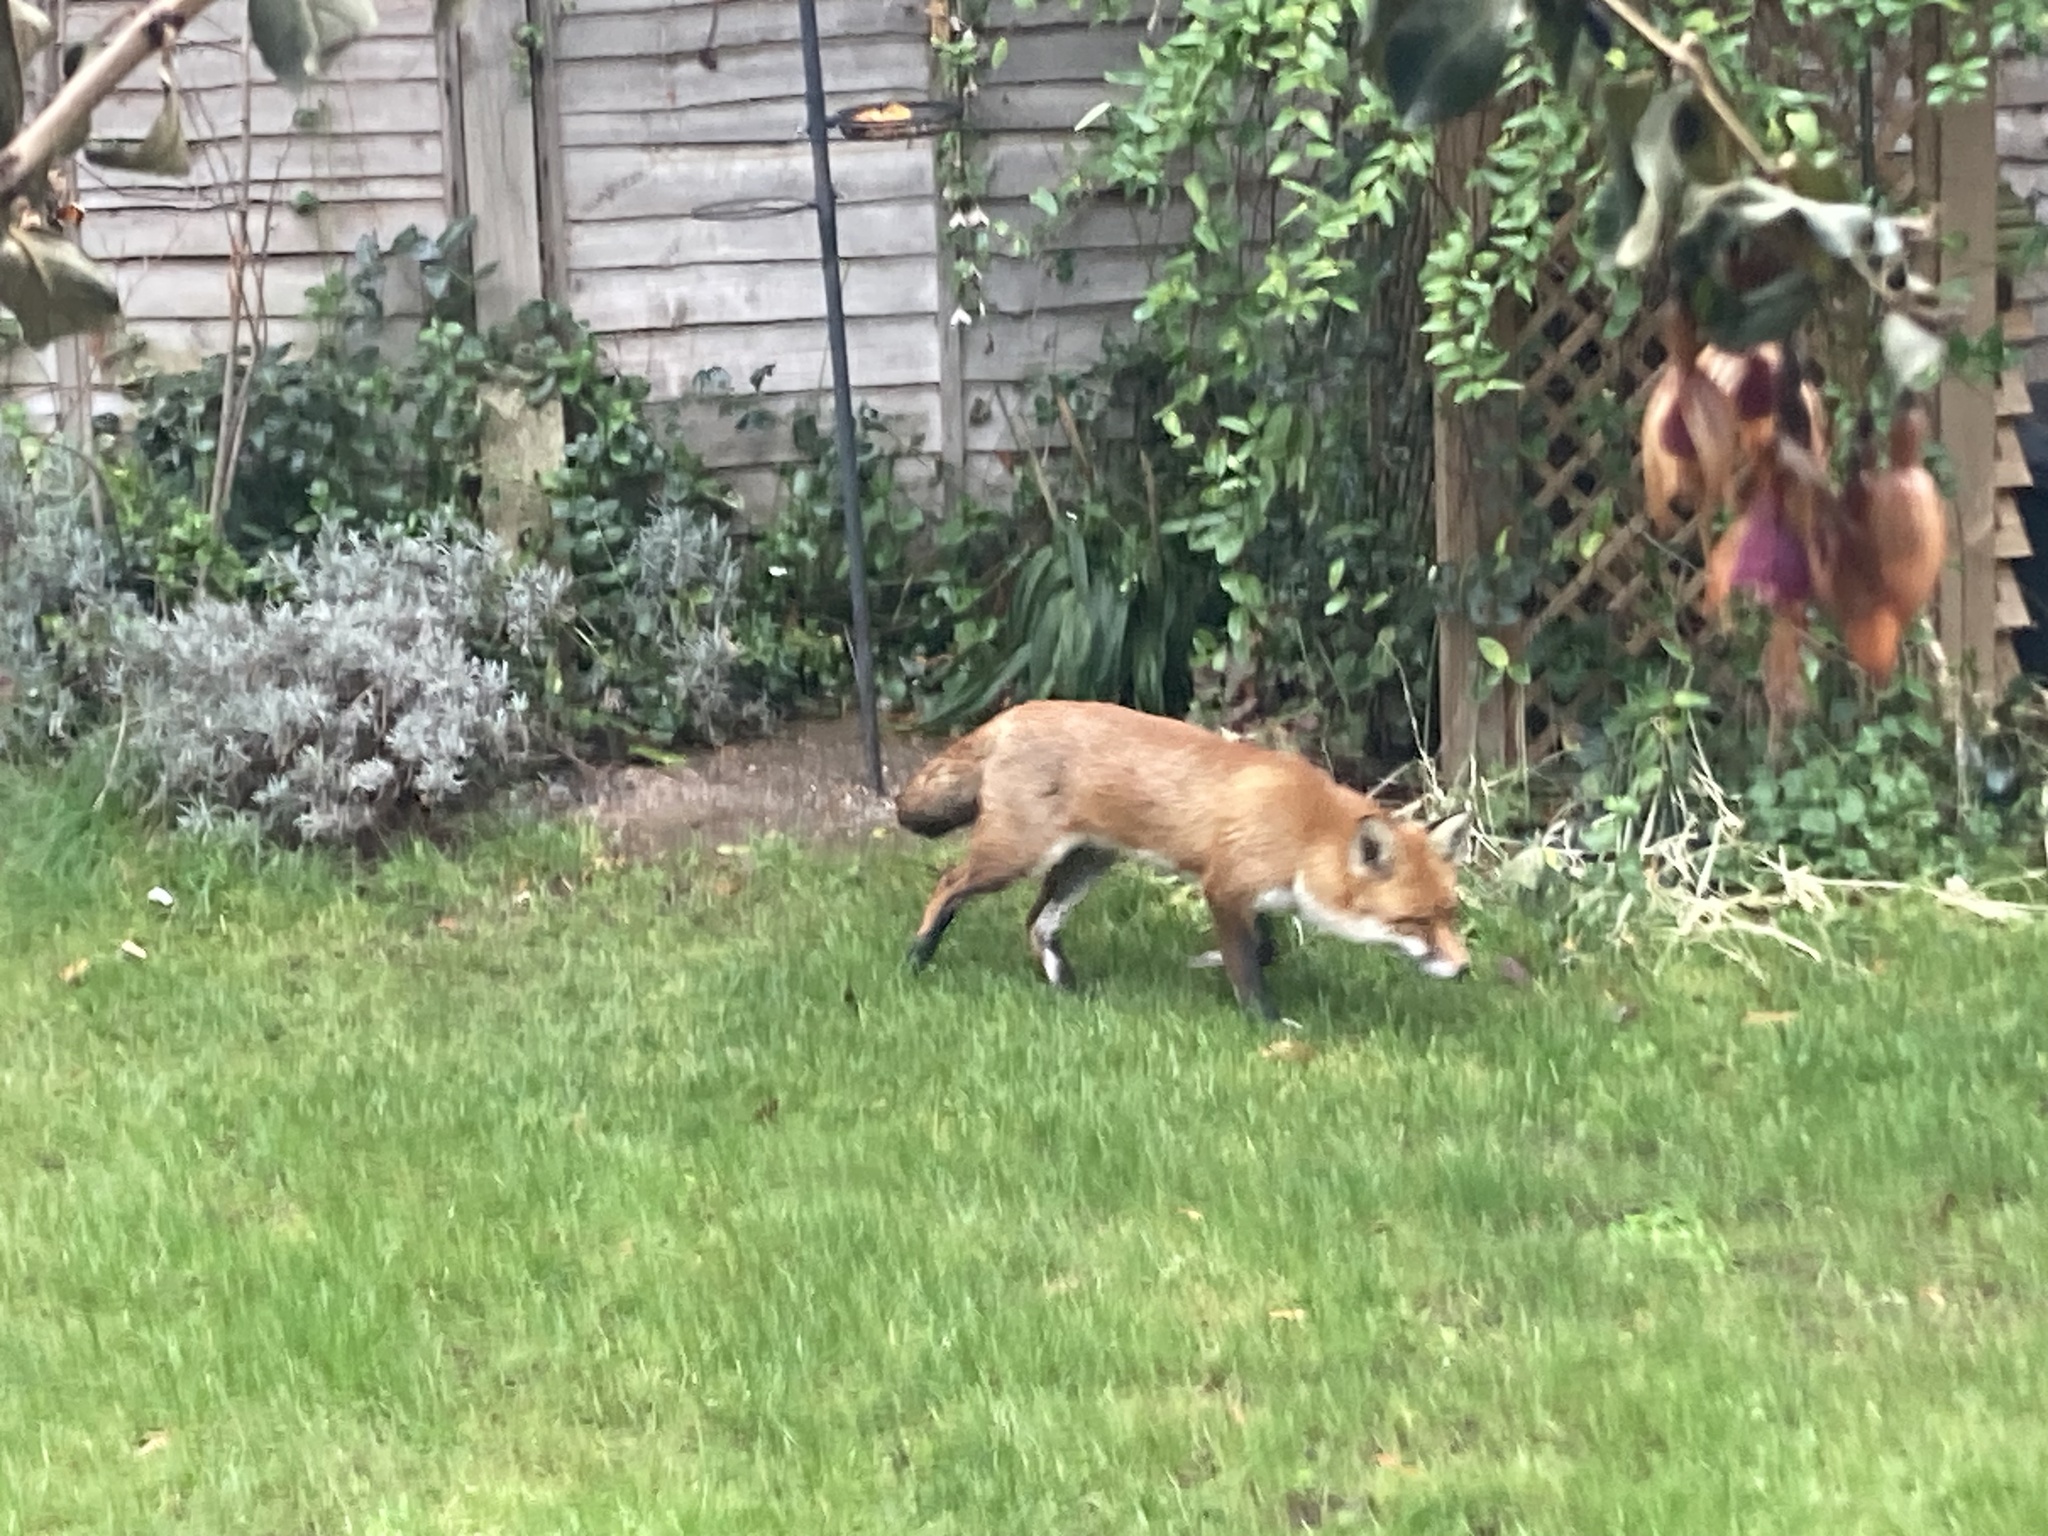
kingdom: Animalia
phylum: Chordata
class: Mammalia
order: Carnivora
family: Canidae
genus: Vulpes
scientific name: Vulpes vulpes
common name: Red fox
